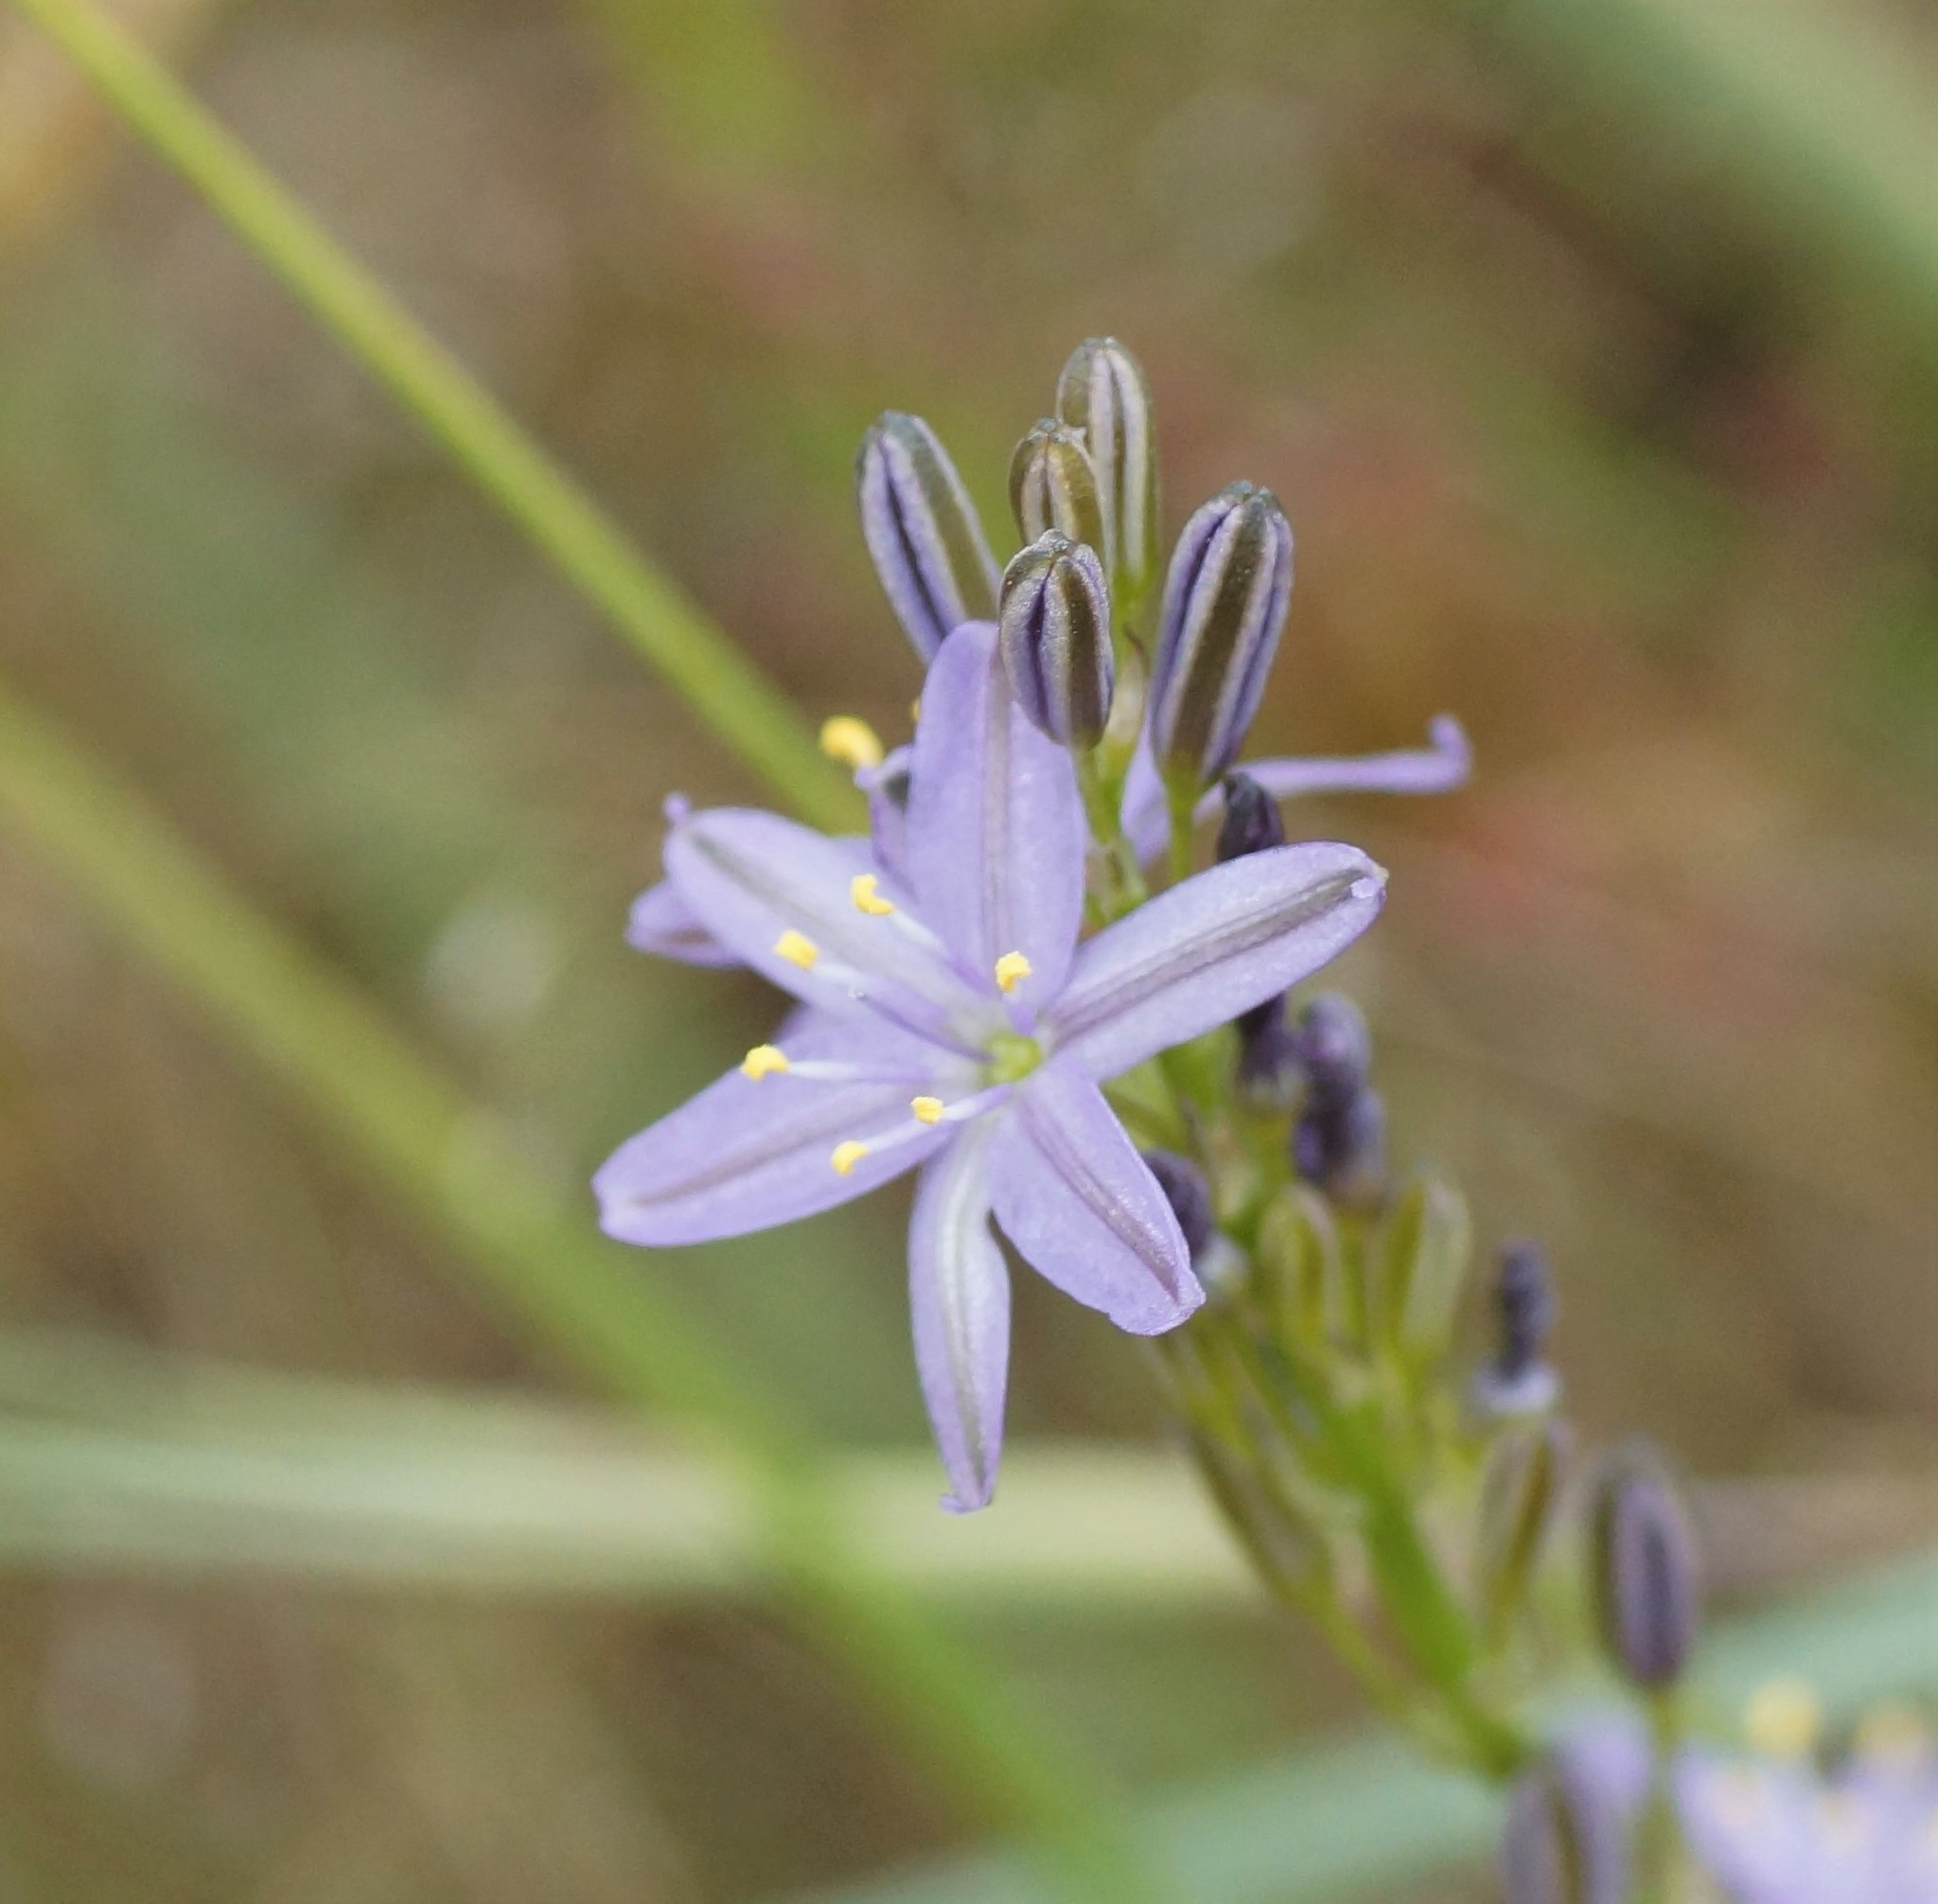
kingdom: Plantae
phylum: Tracheophyta
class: Liliopsida
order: Asparagales
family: Asphodelaceae
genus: Caesia
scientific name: Caesia calliantha
